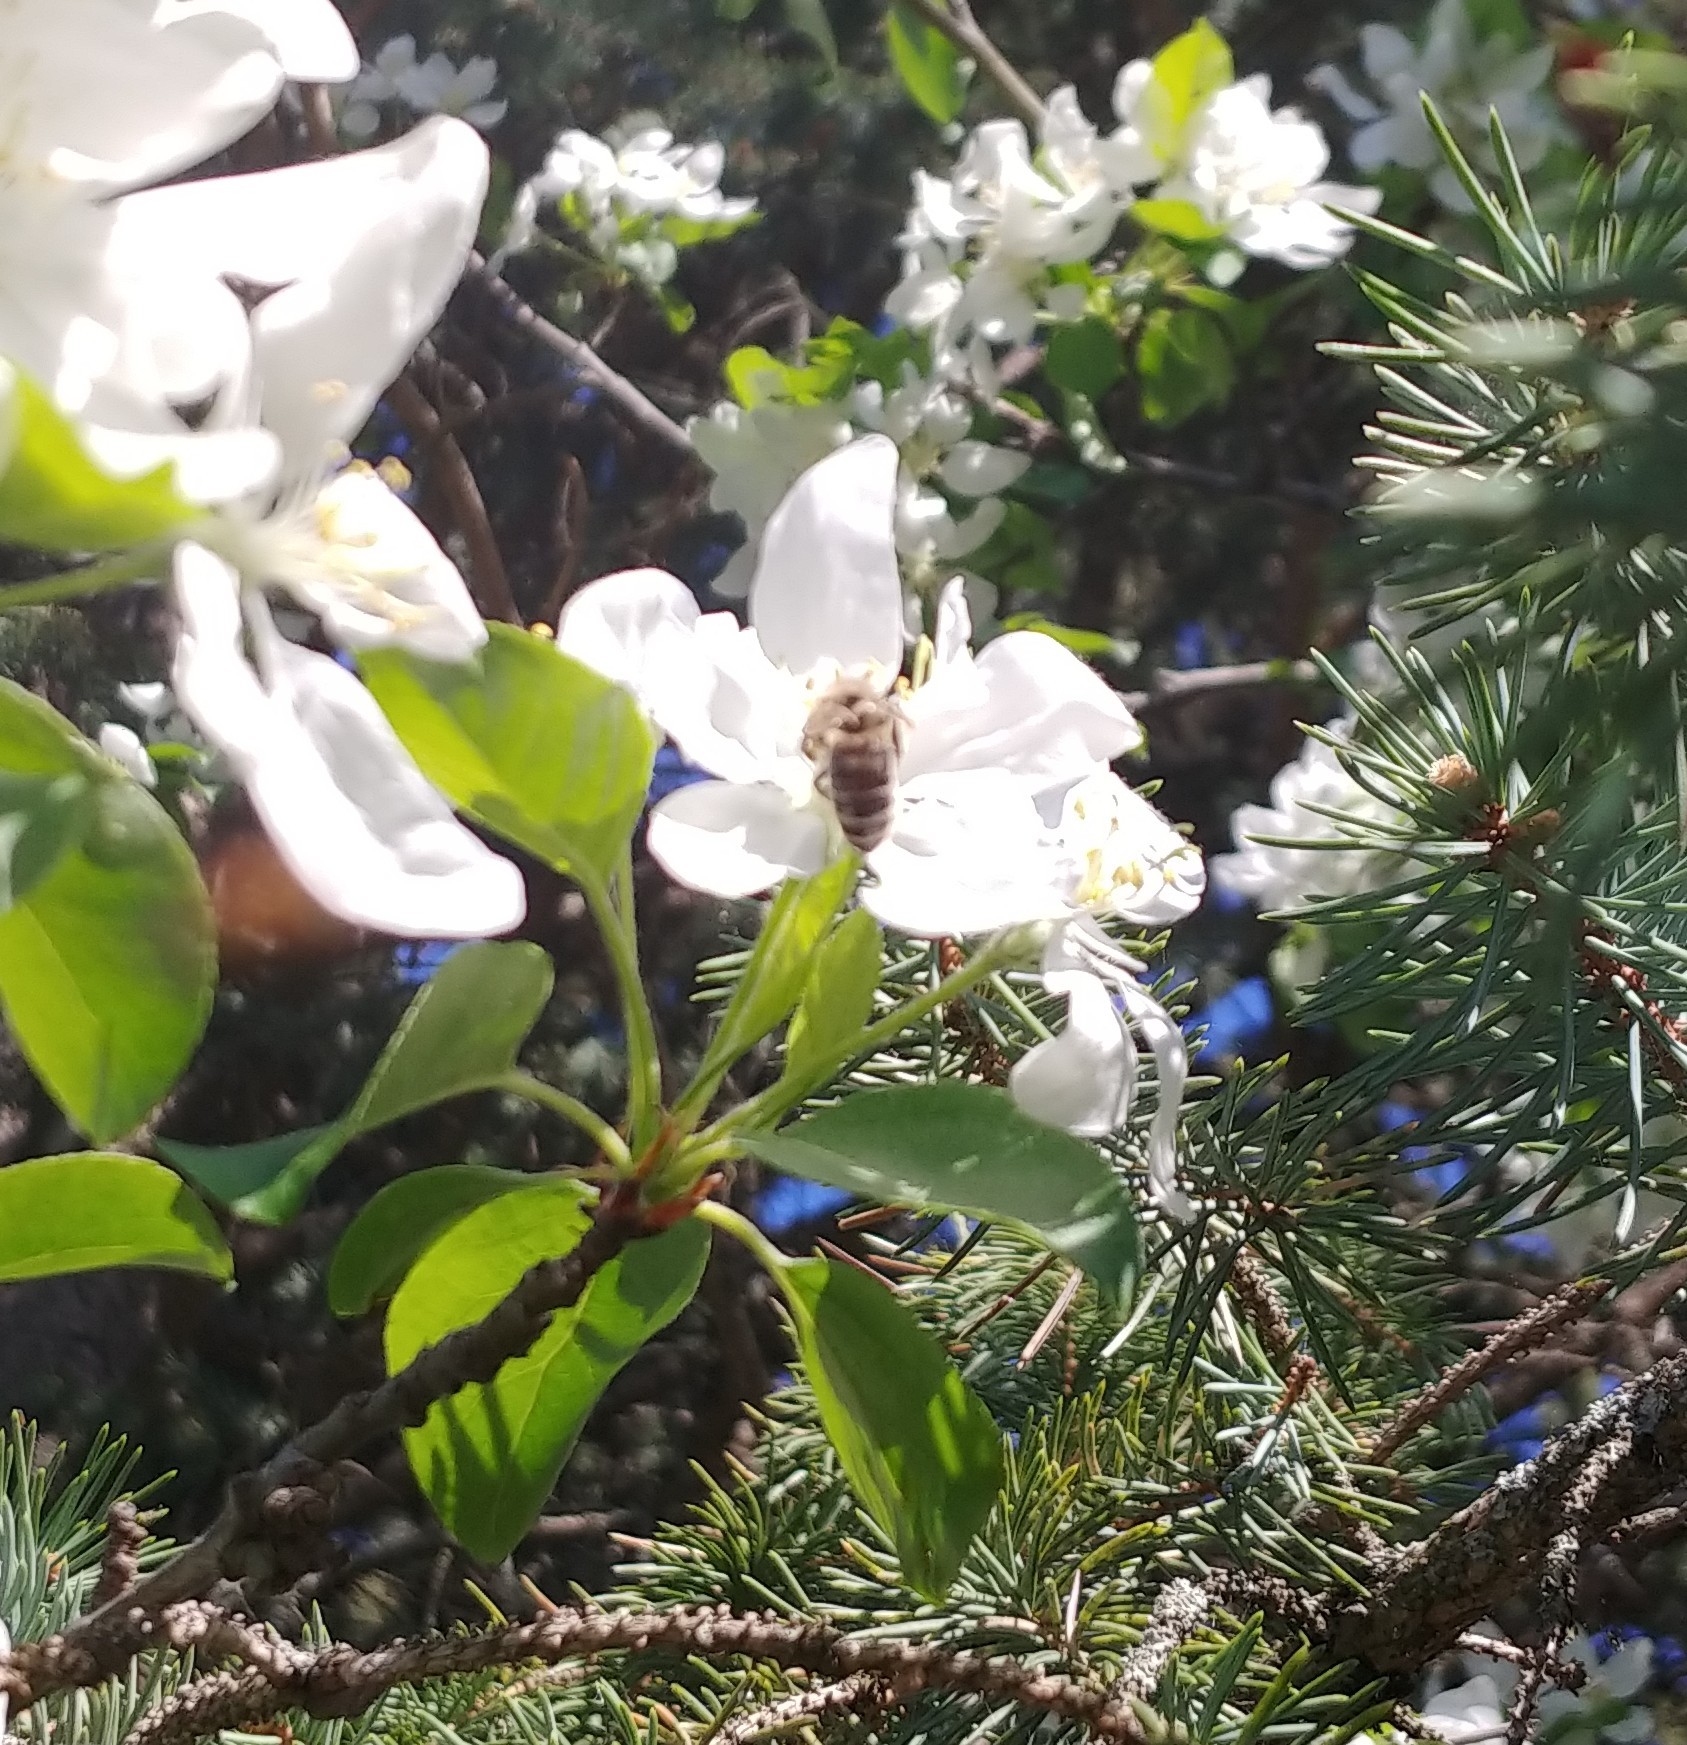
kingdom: Animalia
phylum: Arthropoda
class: Insecta
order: Hymenoptera
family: Apidae
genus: Apis
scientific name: Apis mellifera
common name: Honey bee
